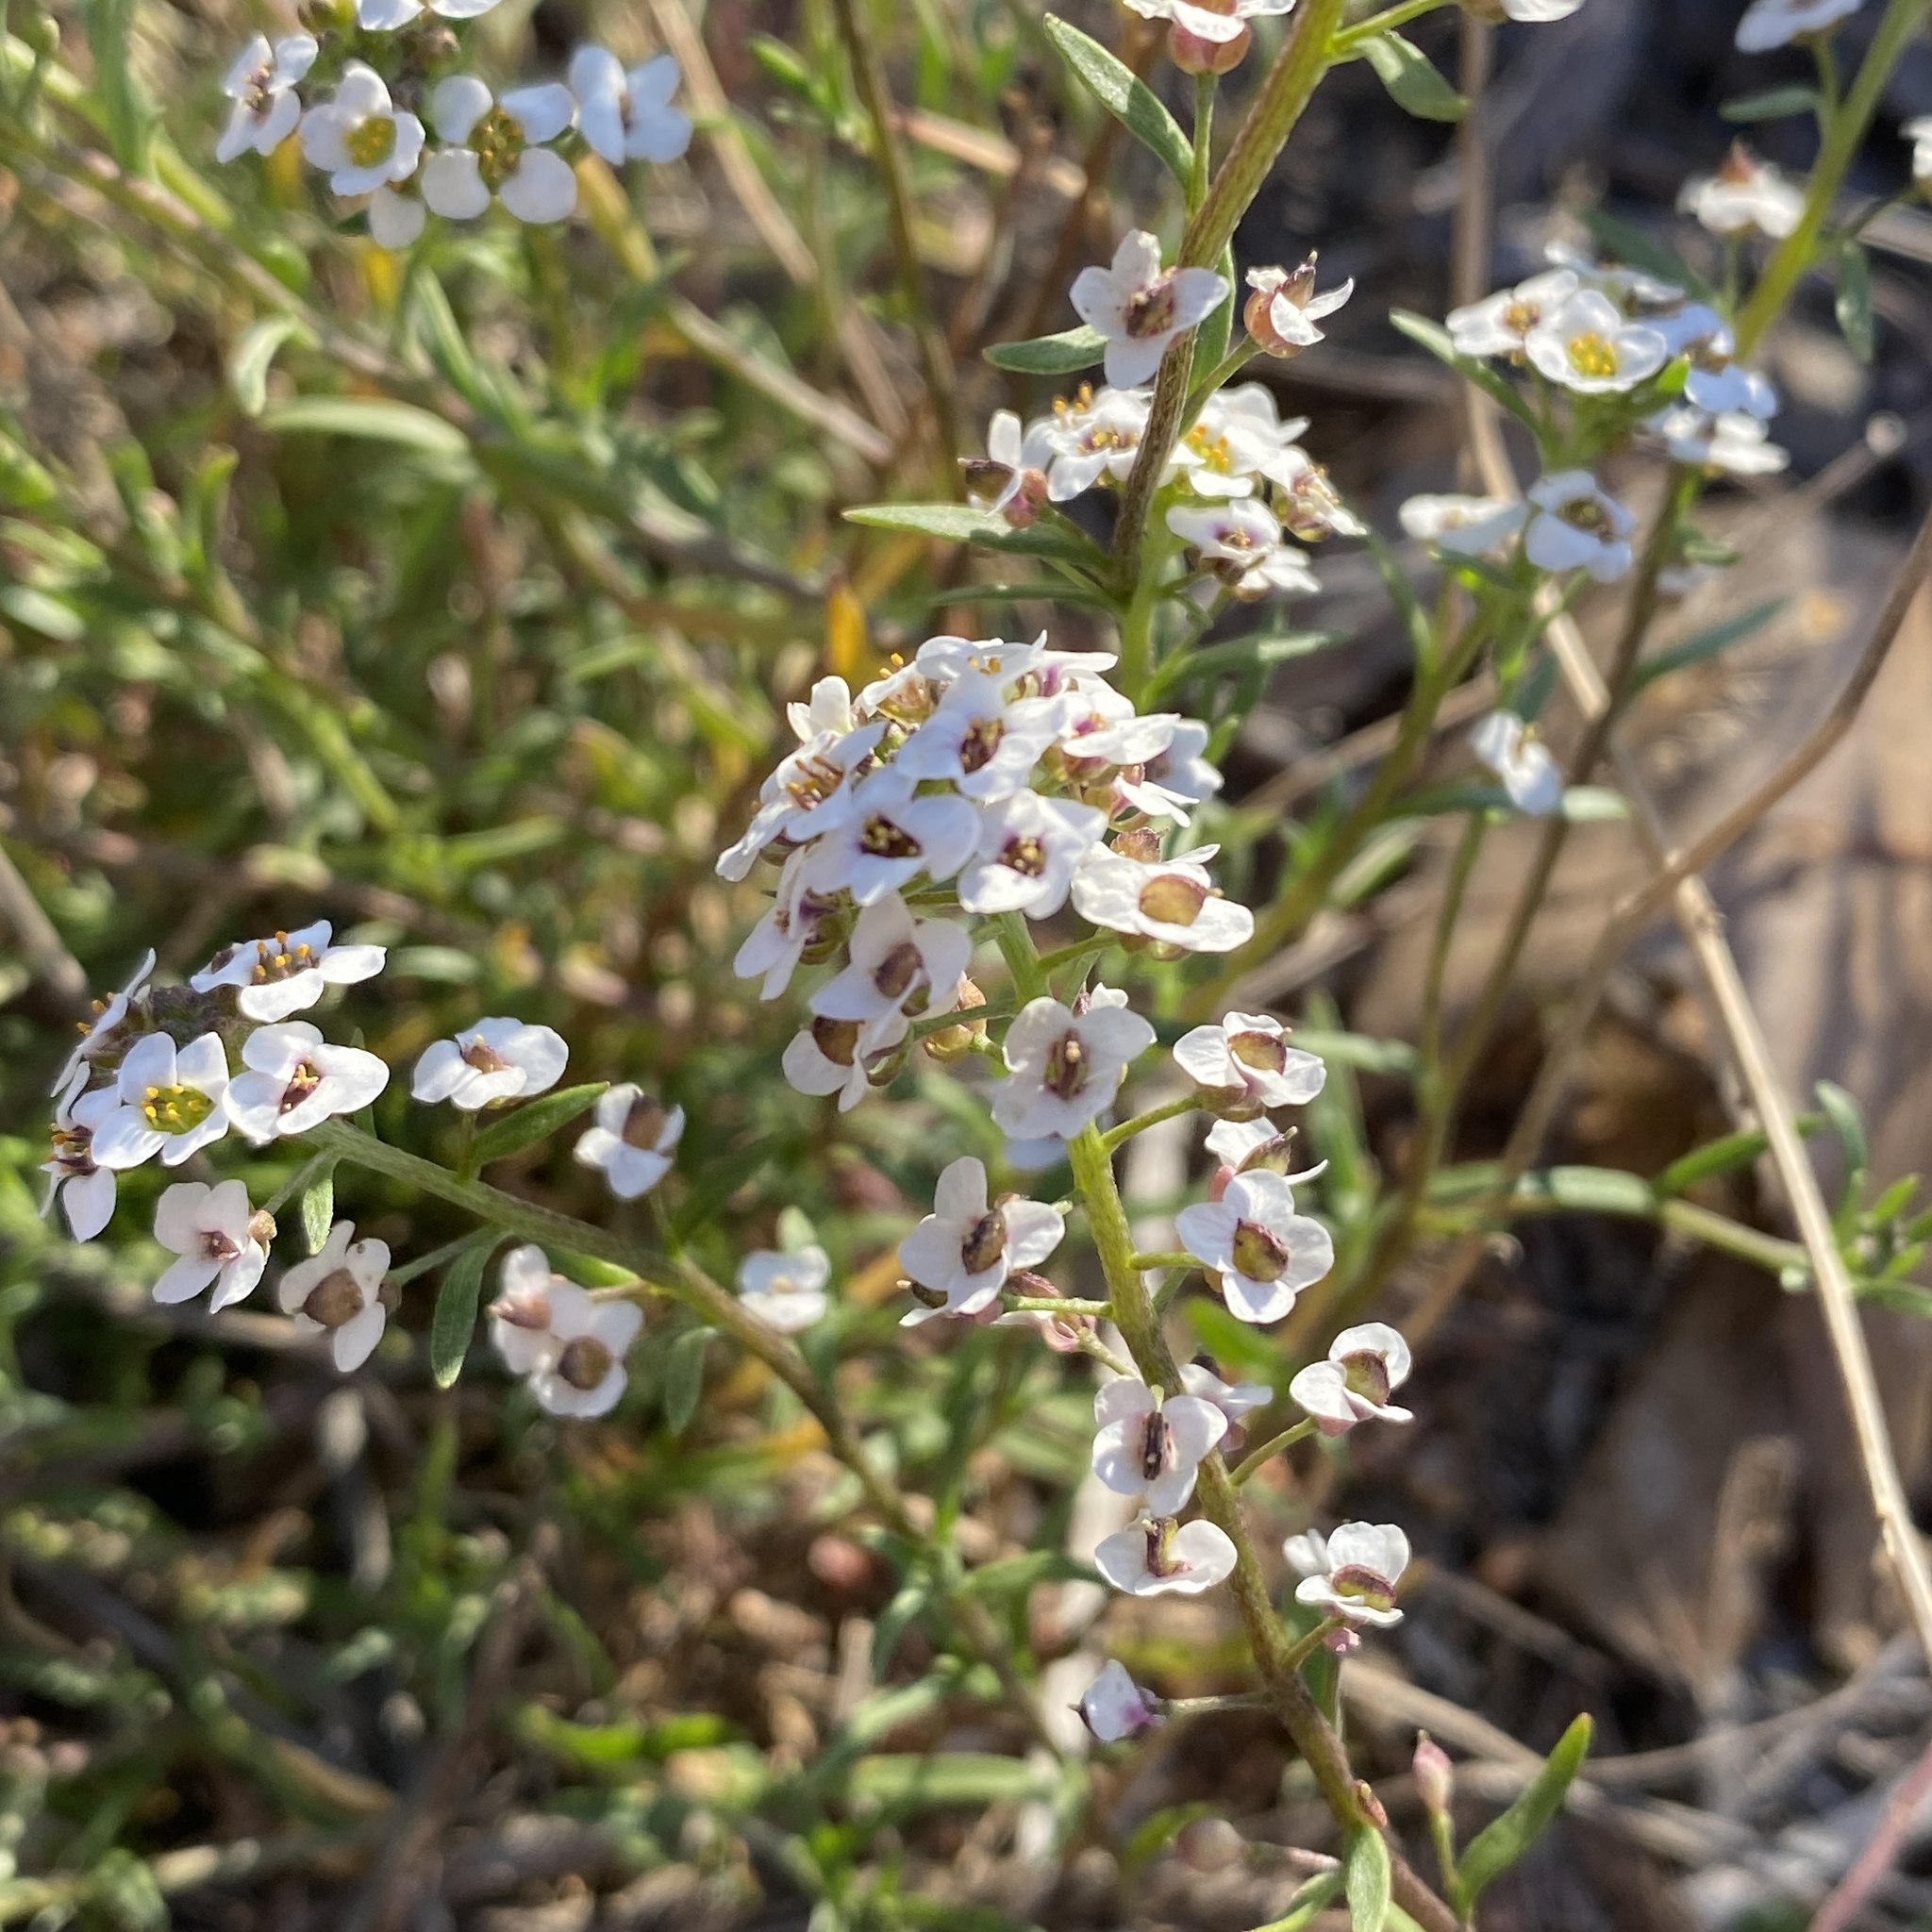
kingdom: Plantae
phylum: Tracheophyta
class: Magnoliopsida
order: Brassicales
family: Brassicaceae
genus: Lobularia
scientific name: Lobularia maritima
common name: Sweet alison
